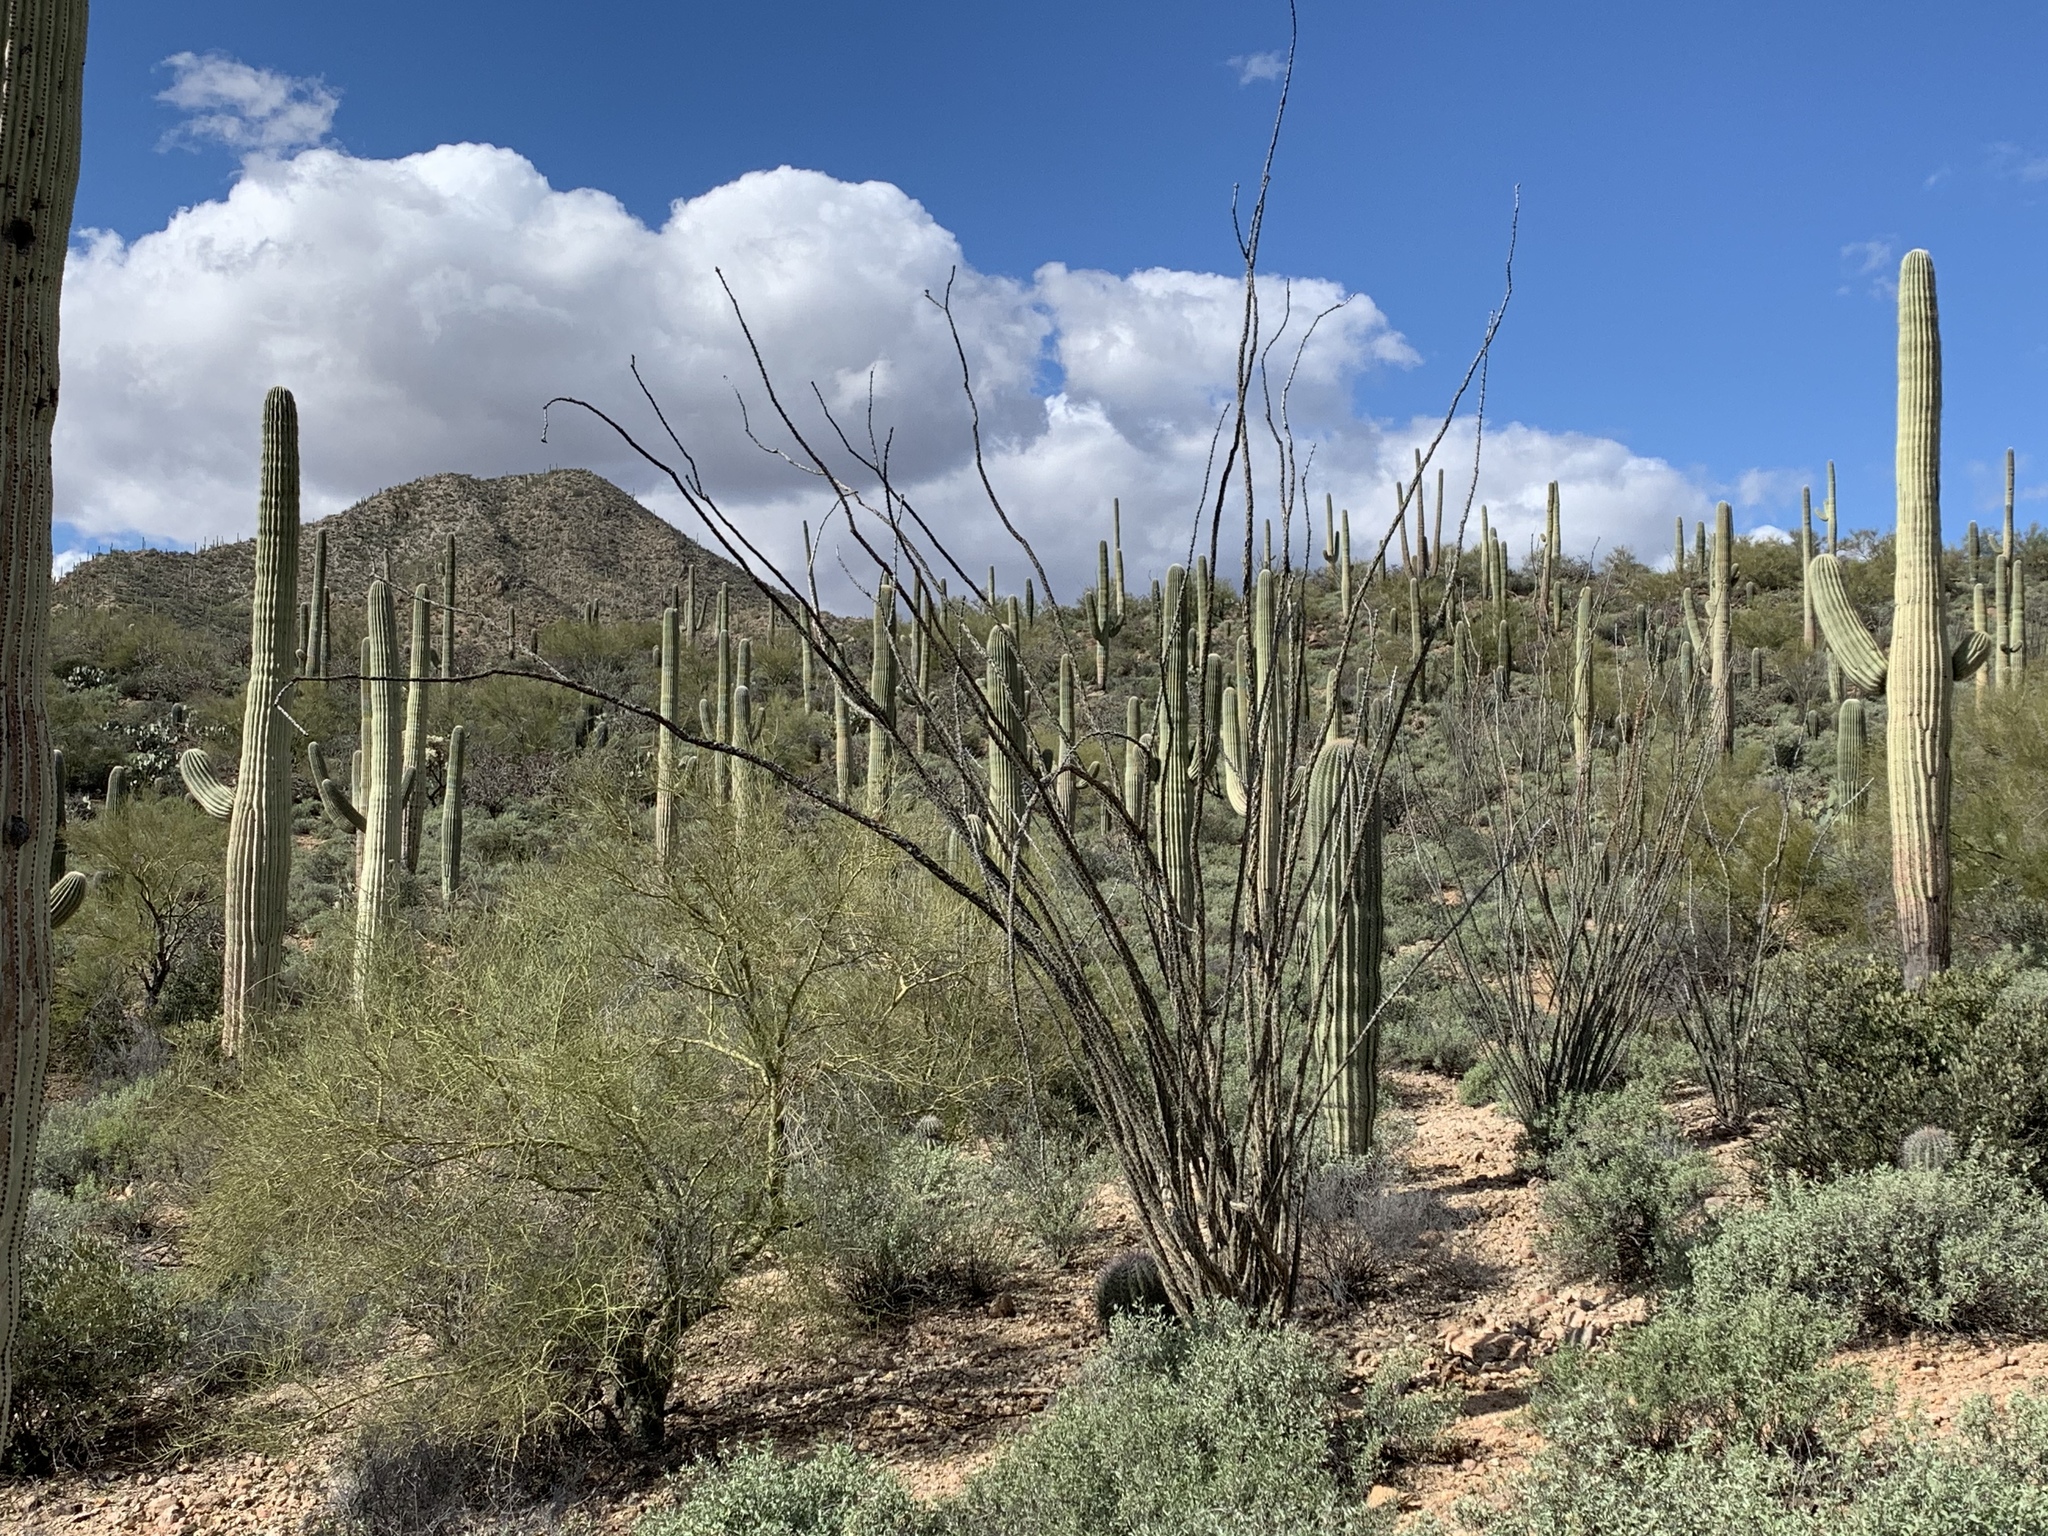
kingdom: Plantae
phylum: Tracheophyta
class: Magnoliopsida
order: Ericales
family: Fouquieriaceae
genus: Fouquieria
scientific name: Fouquieria splendens
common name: Vine-cactus
